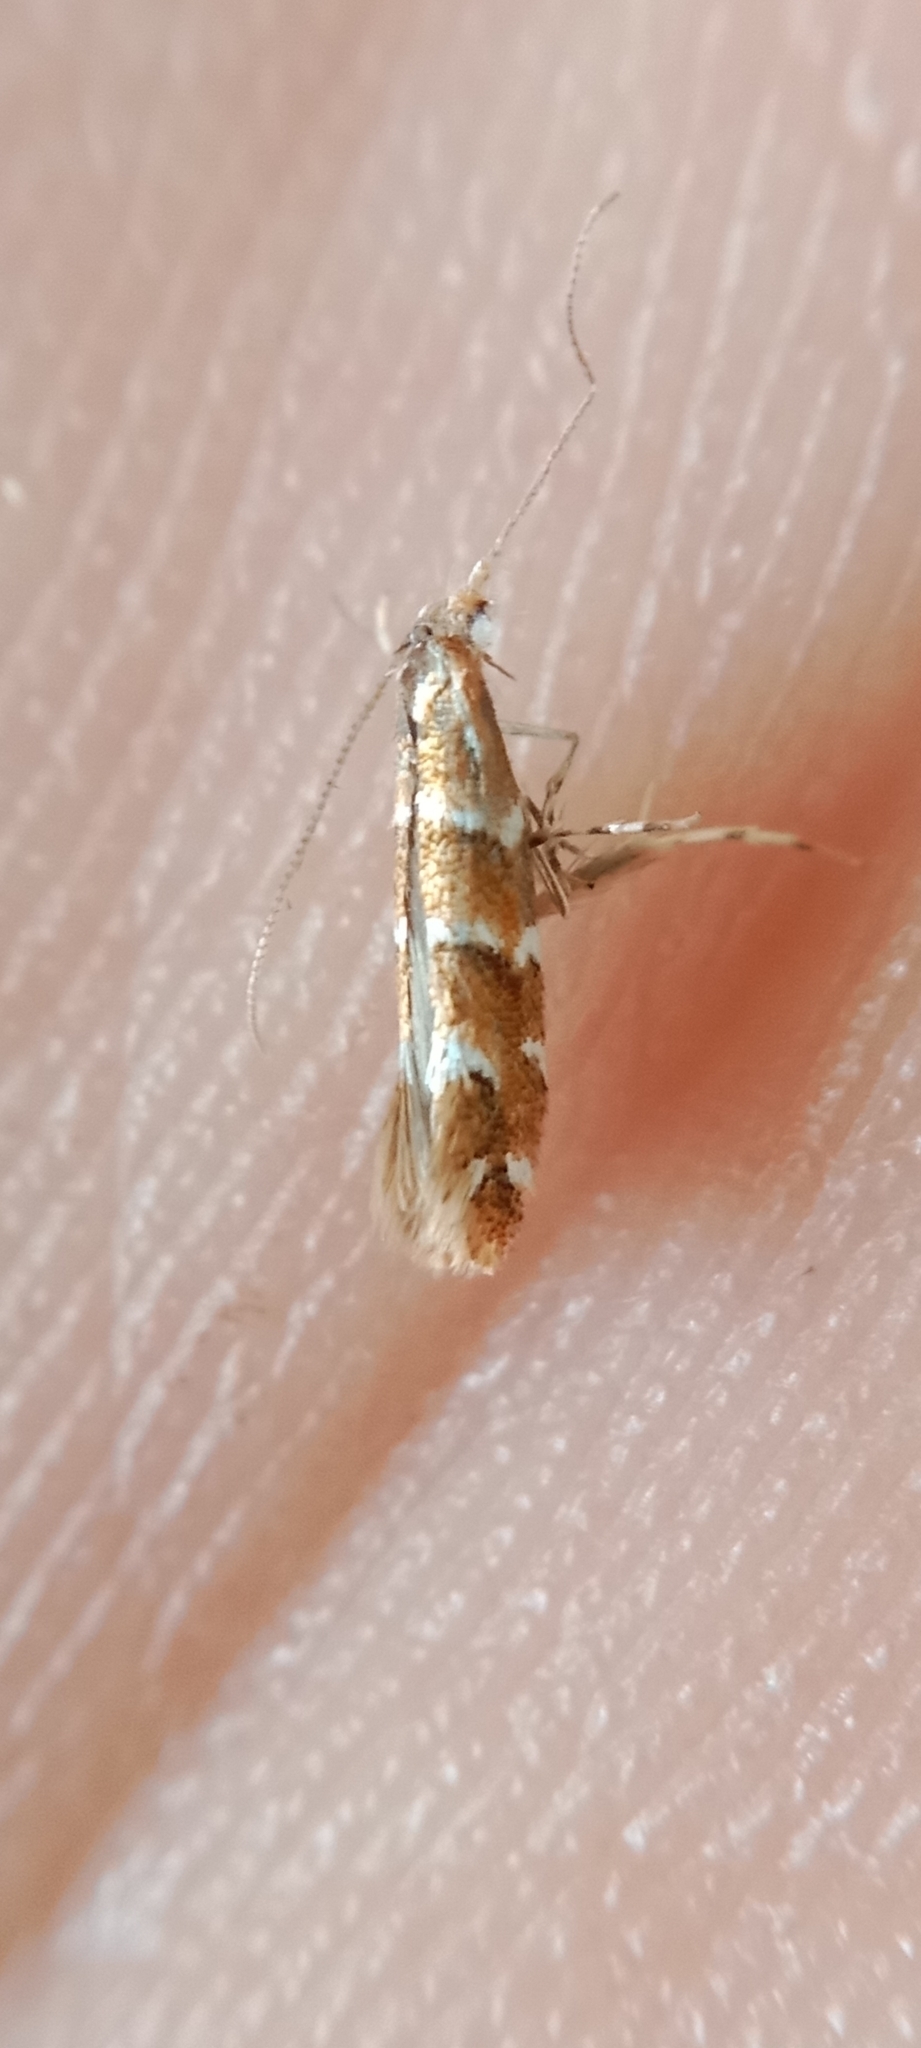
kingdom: Animalia
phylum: Arthropoda
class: Insecta
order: Lepidoptera
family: Gracillariidae
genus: Cameraria
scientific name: Cameraria ohridella
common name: Horse-chestnut leaf-miner
